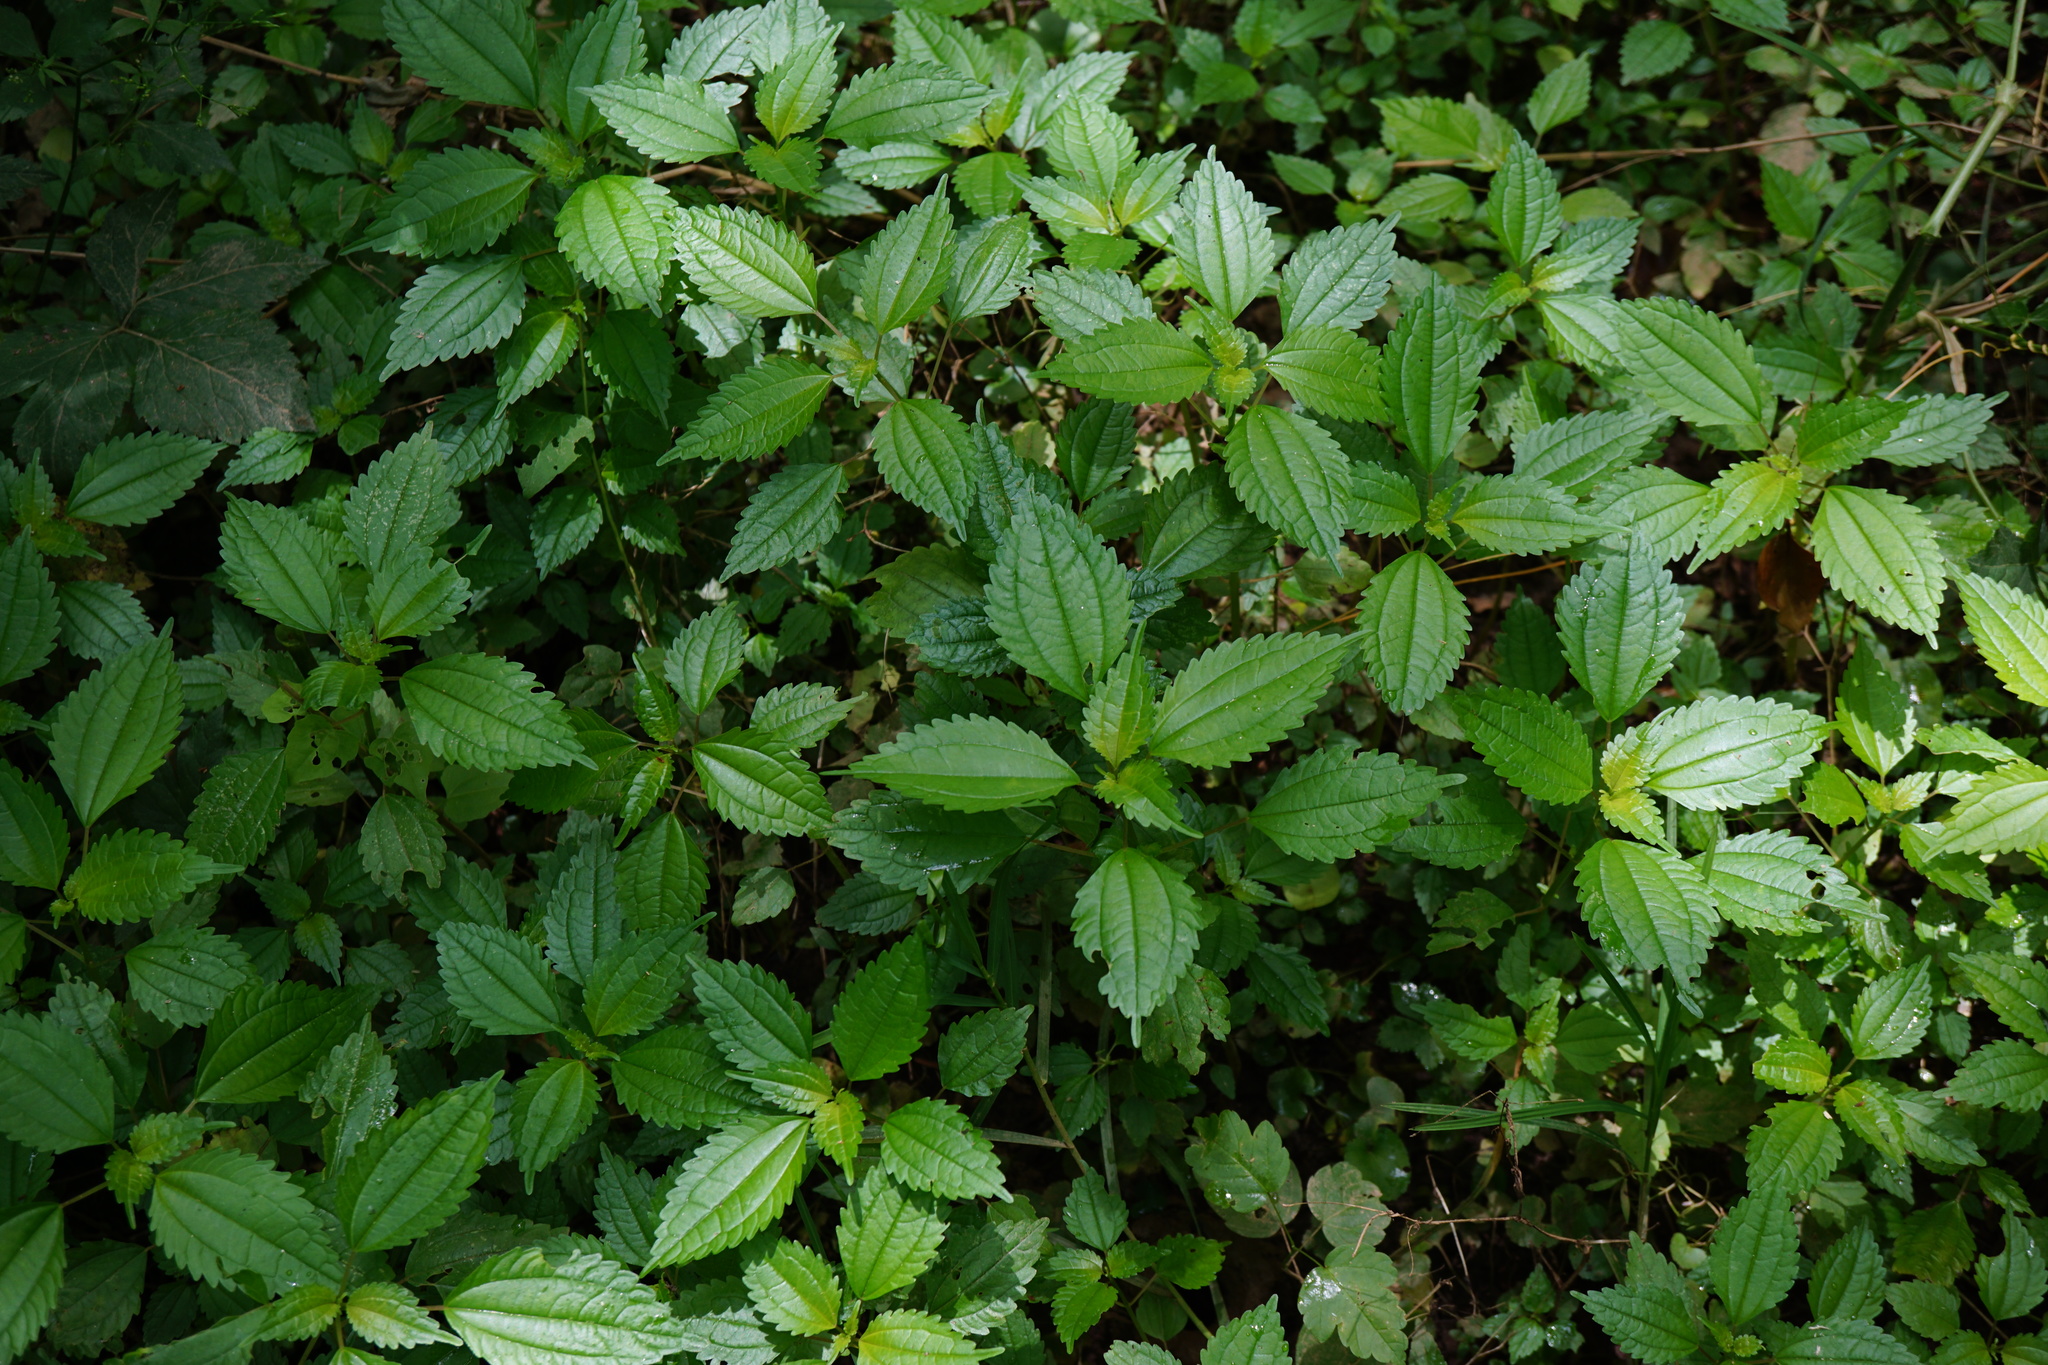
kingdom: Plantae
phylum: Tracheophyta
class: Magnoliopsida
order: Rosales
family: Urticaceae
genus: Pilea
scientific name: Pilea pumila
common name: Clearweed
